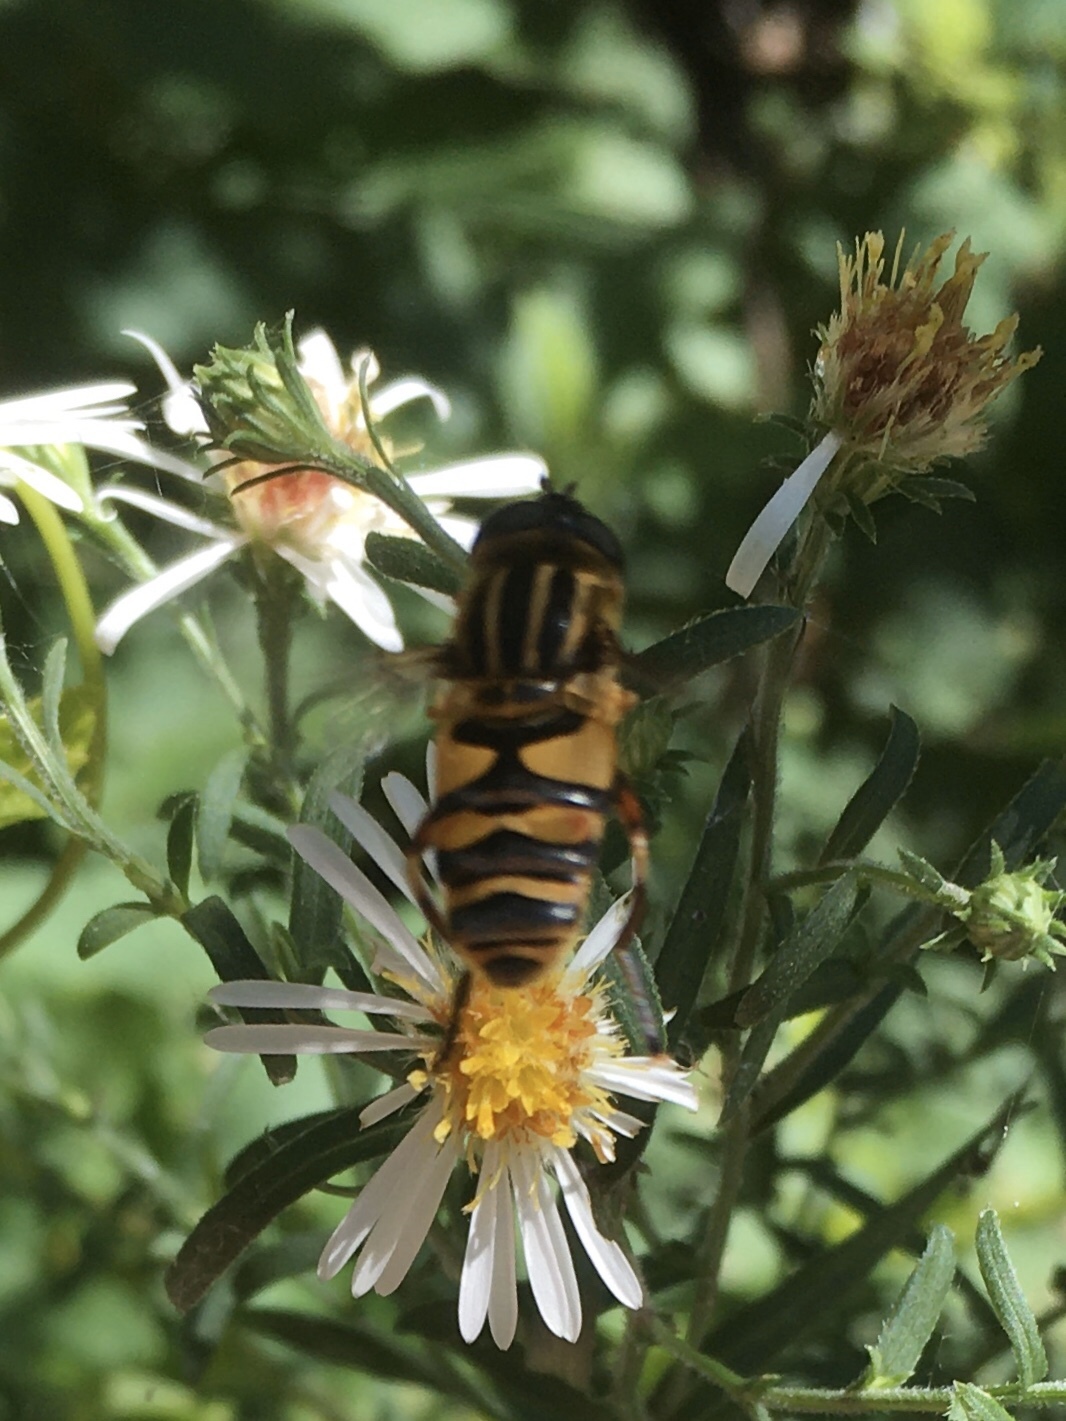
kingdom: Animalia
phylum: Arthropoda
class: Insecta
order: Diptera
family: Syrphidae
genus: Helophilus
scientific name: Helophilus fasciatus
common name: Narrow-headed marsh fly
